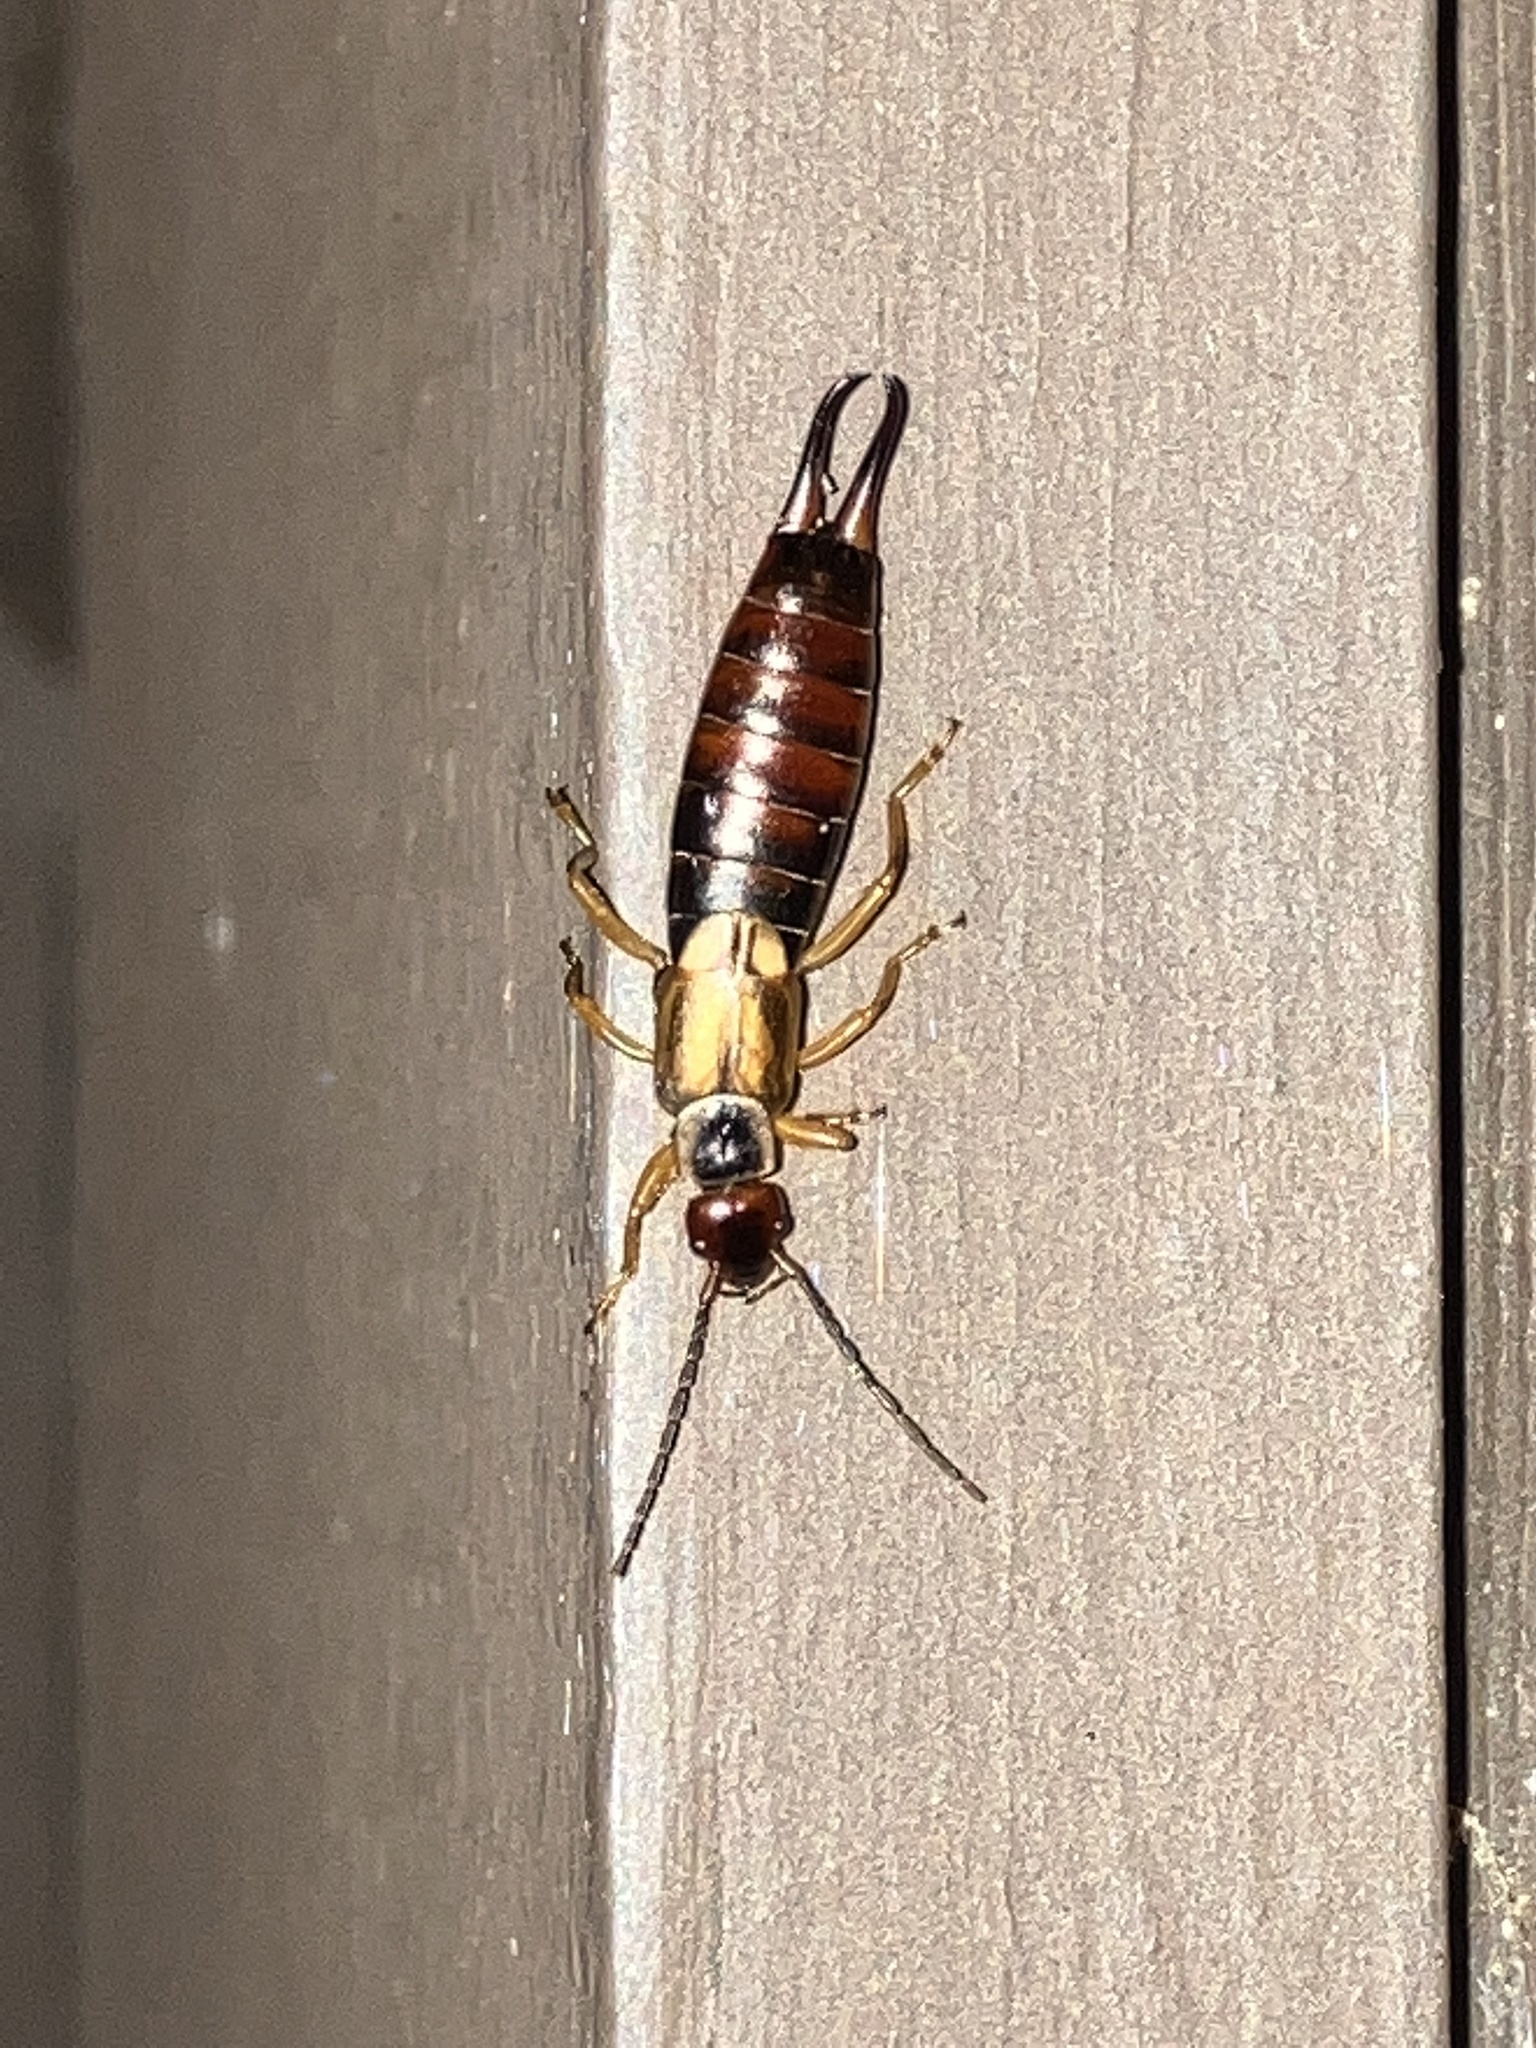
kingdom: Animalia
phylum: Arthropoda
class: Insecta
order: Dermaptera
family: Forficulidae
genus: Forficula
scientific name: Forficula
